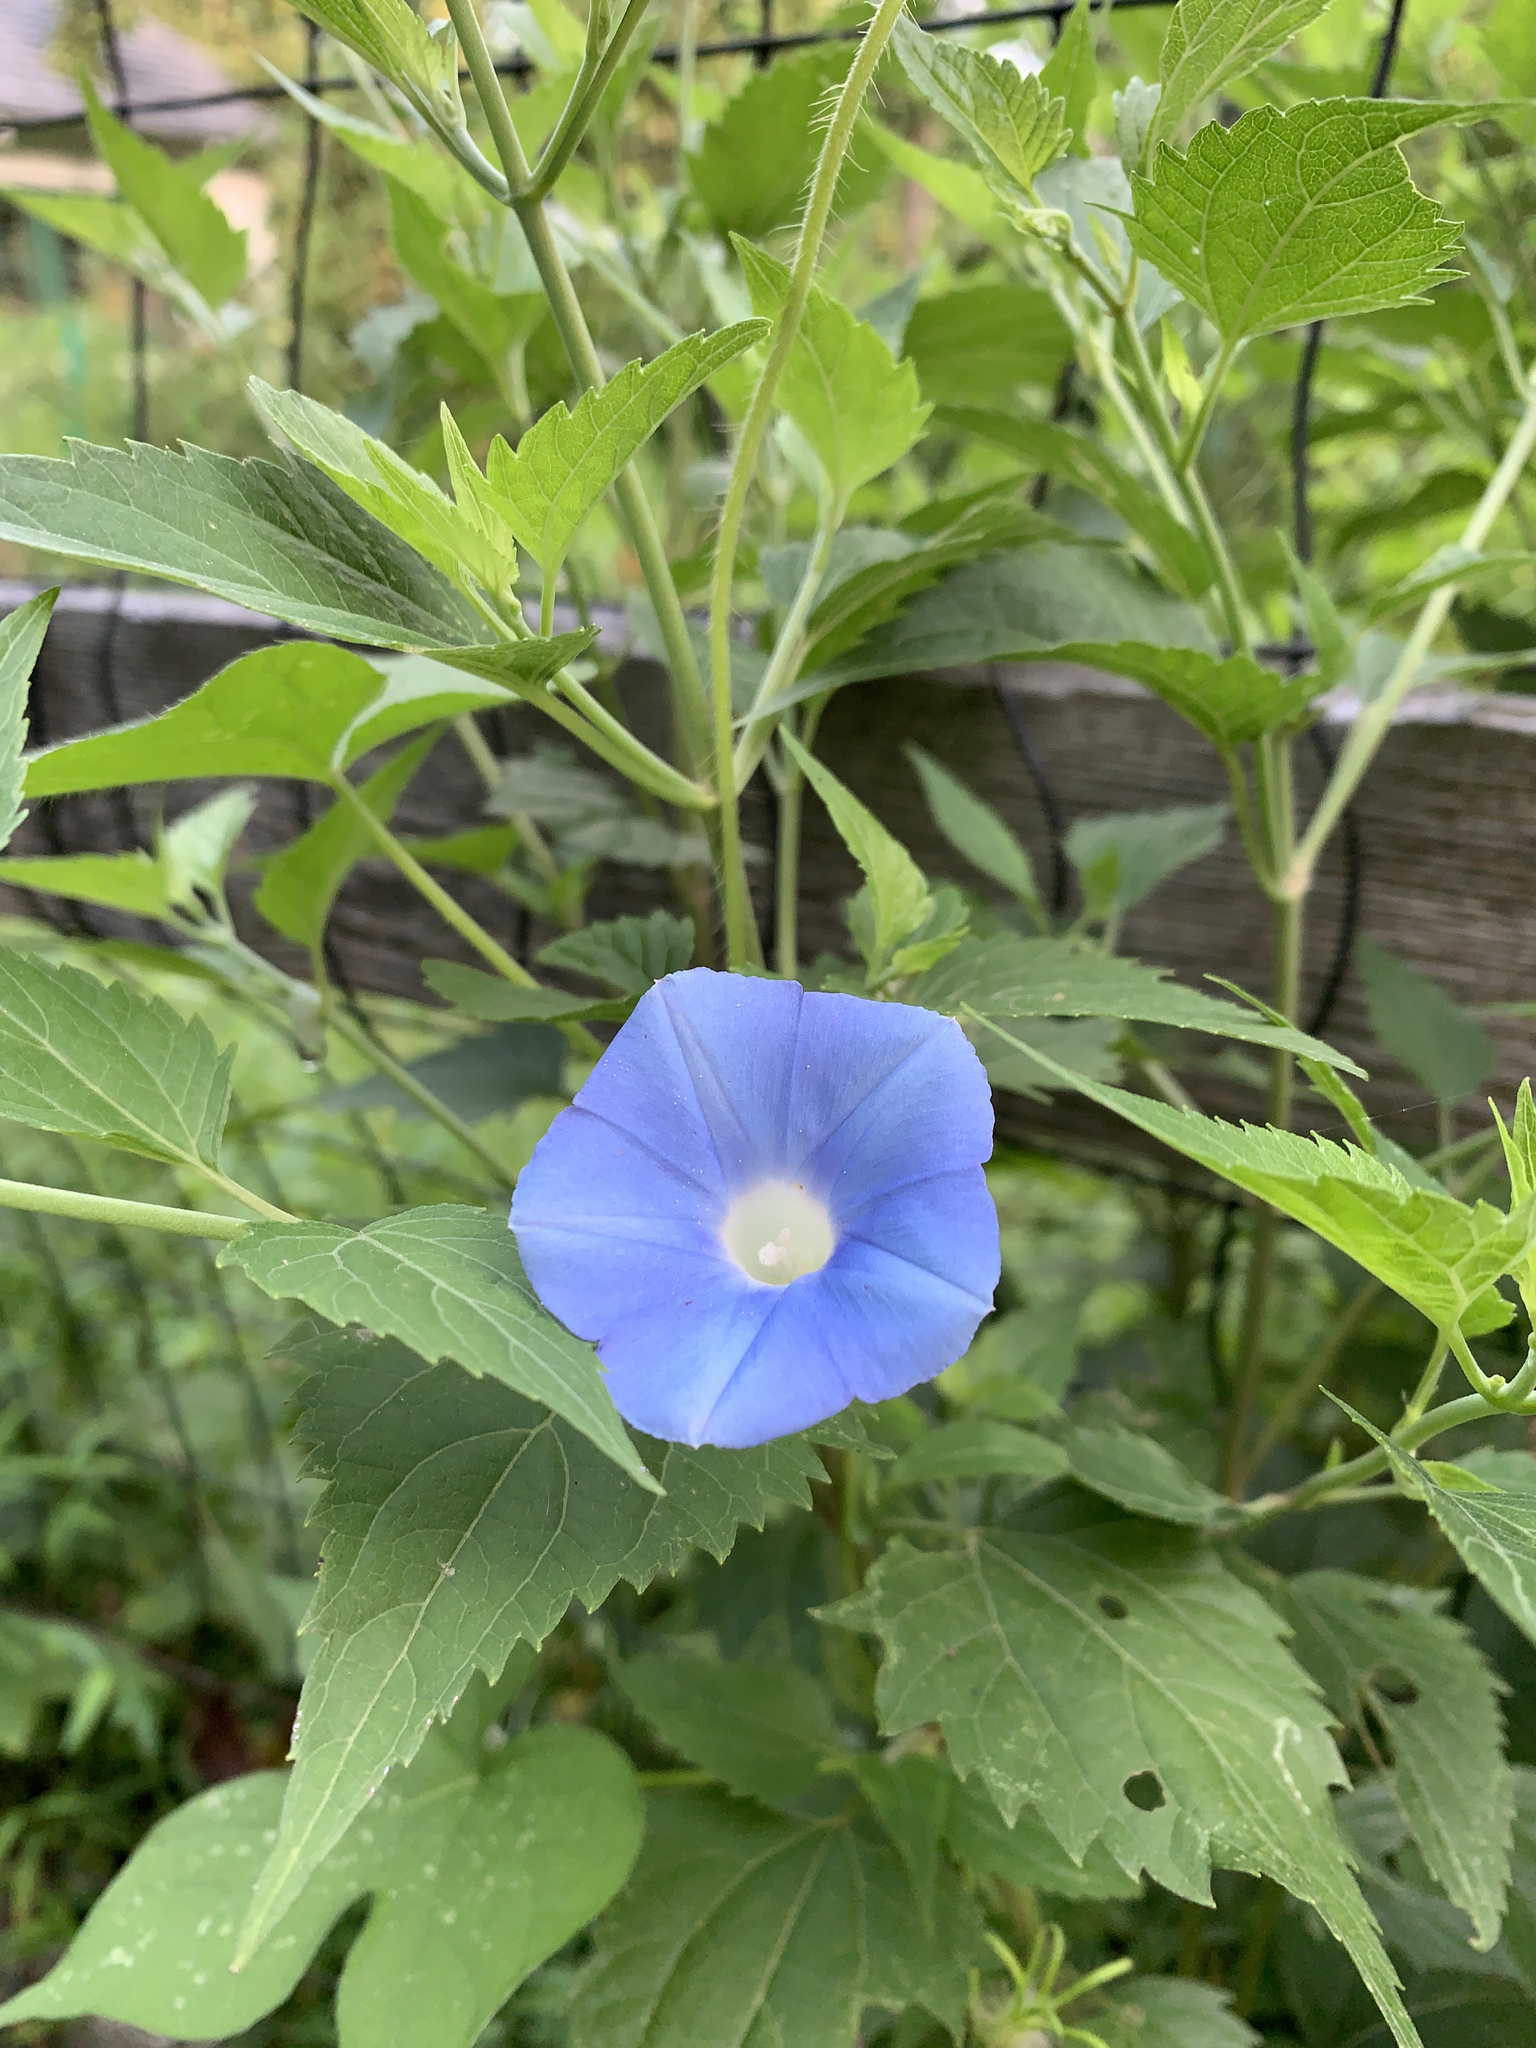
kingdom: Plantae
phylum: Tracheophyta
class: Magnoliopsida
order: Solanales
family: Convolvulaceae
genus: Ipomoea
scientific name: Ipomoea hederacea
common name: Ivy-leaved morning-glory
